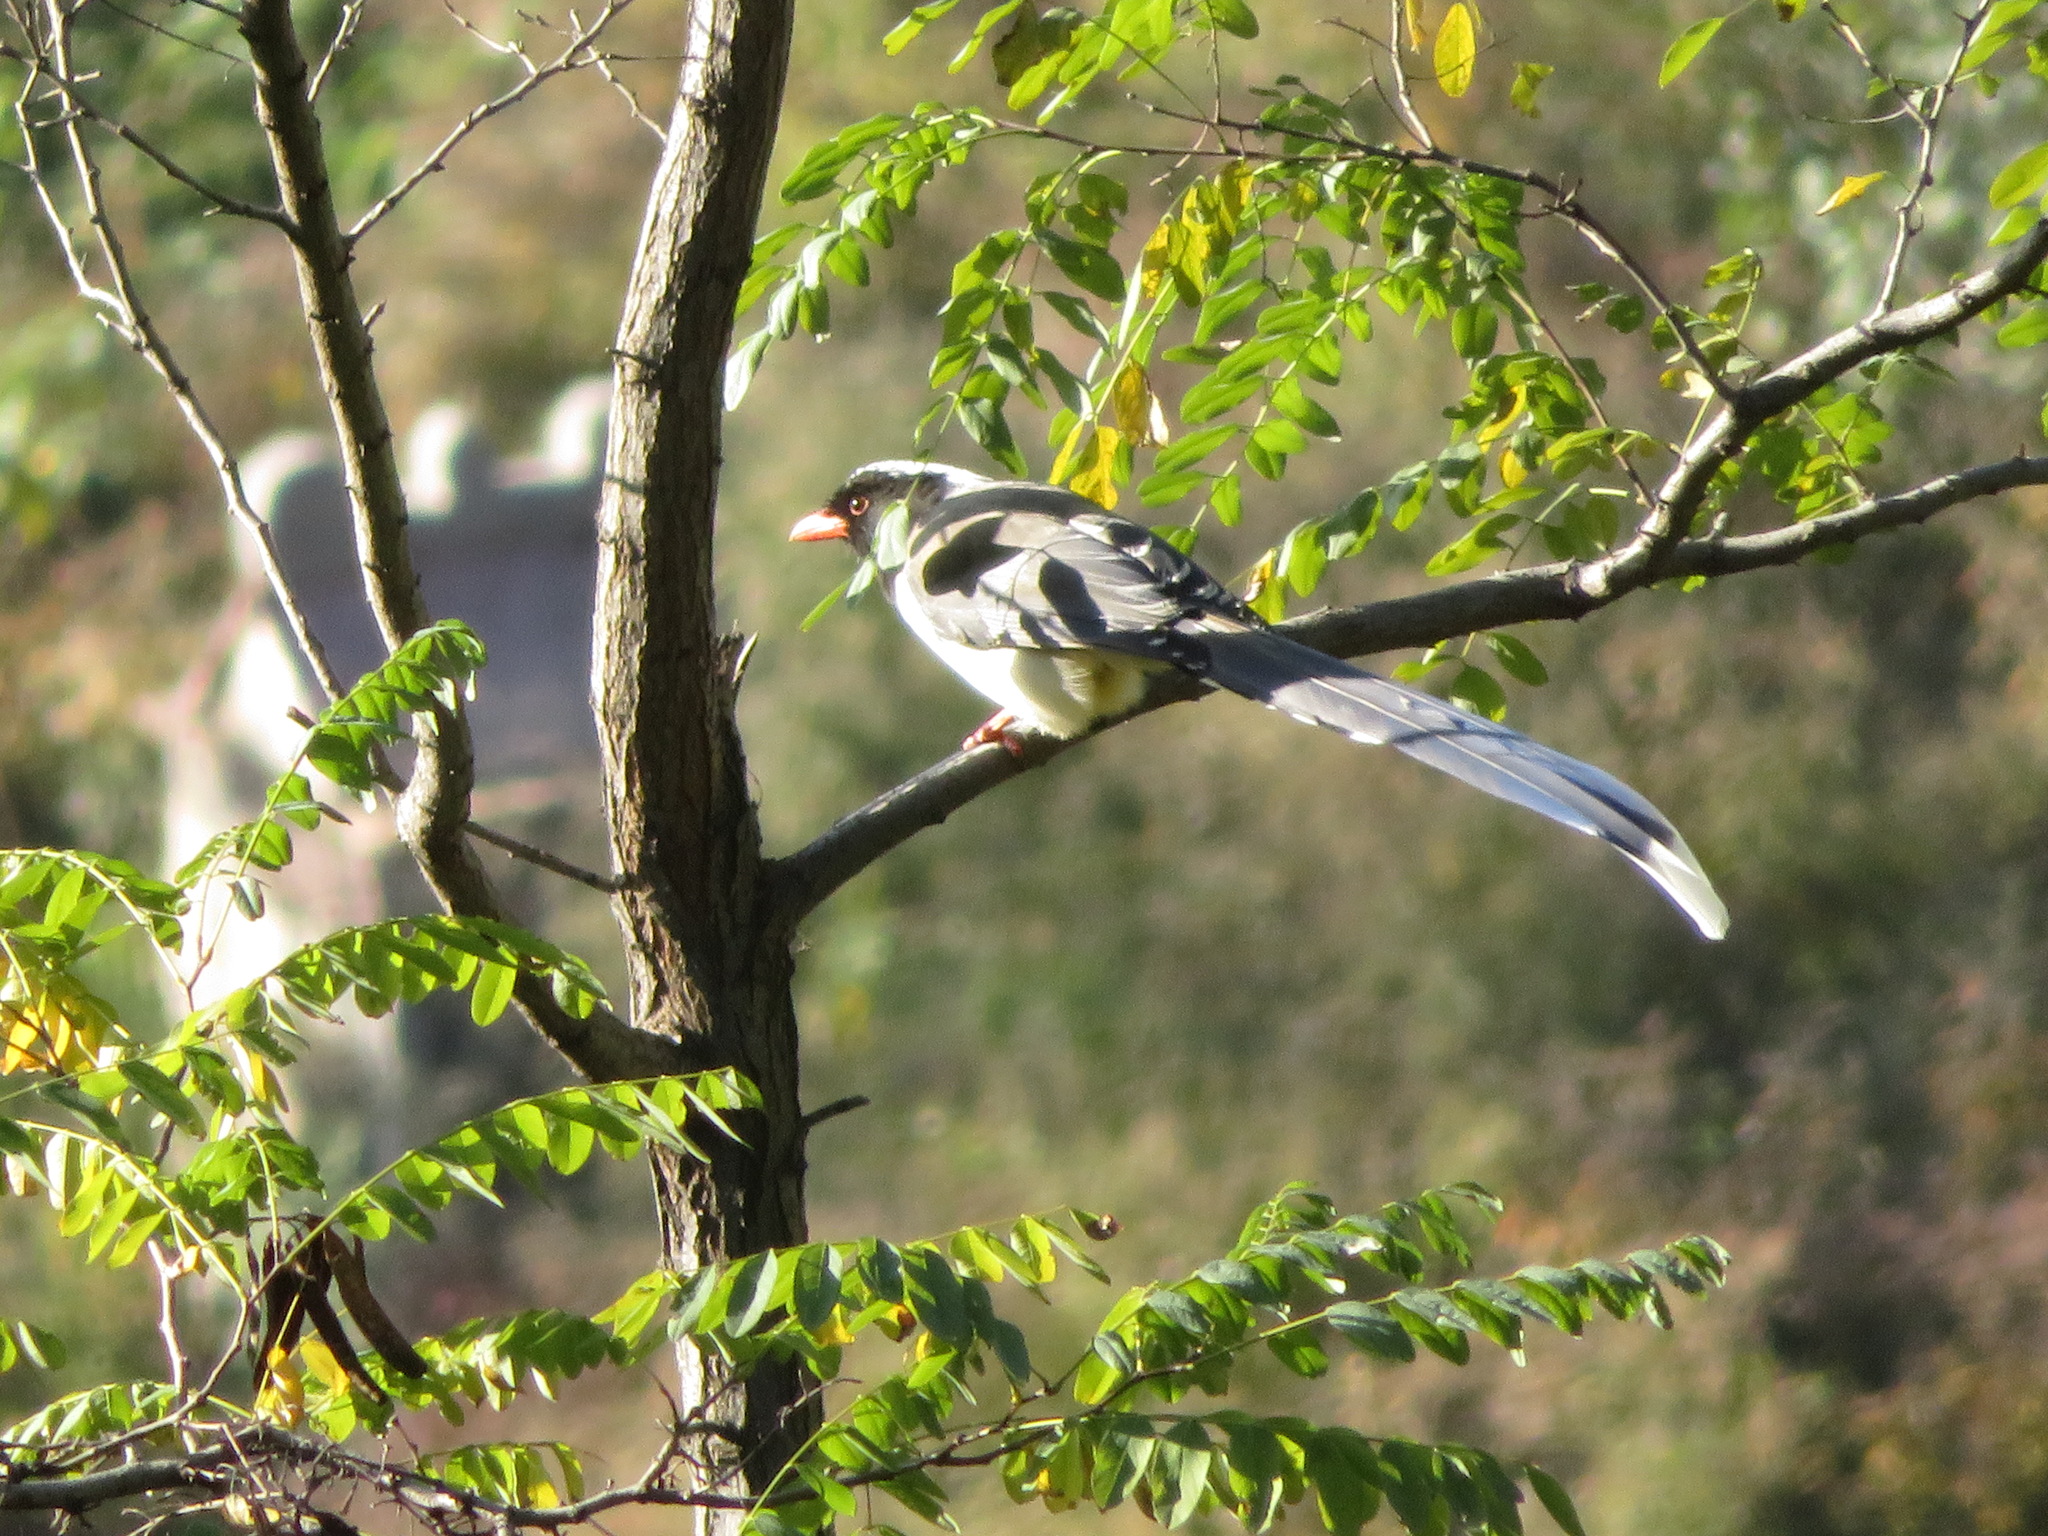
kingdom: Animalia
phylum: Chordata
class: Aves
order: Passeriformes
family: Corvidae
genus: Urocissa
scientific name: Urocissa erythroryncha
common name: Red-billed blue magpie
